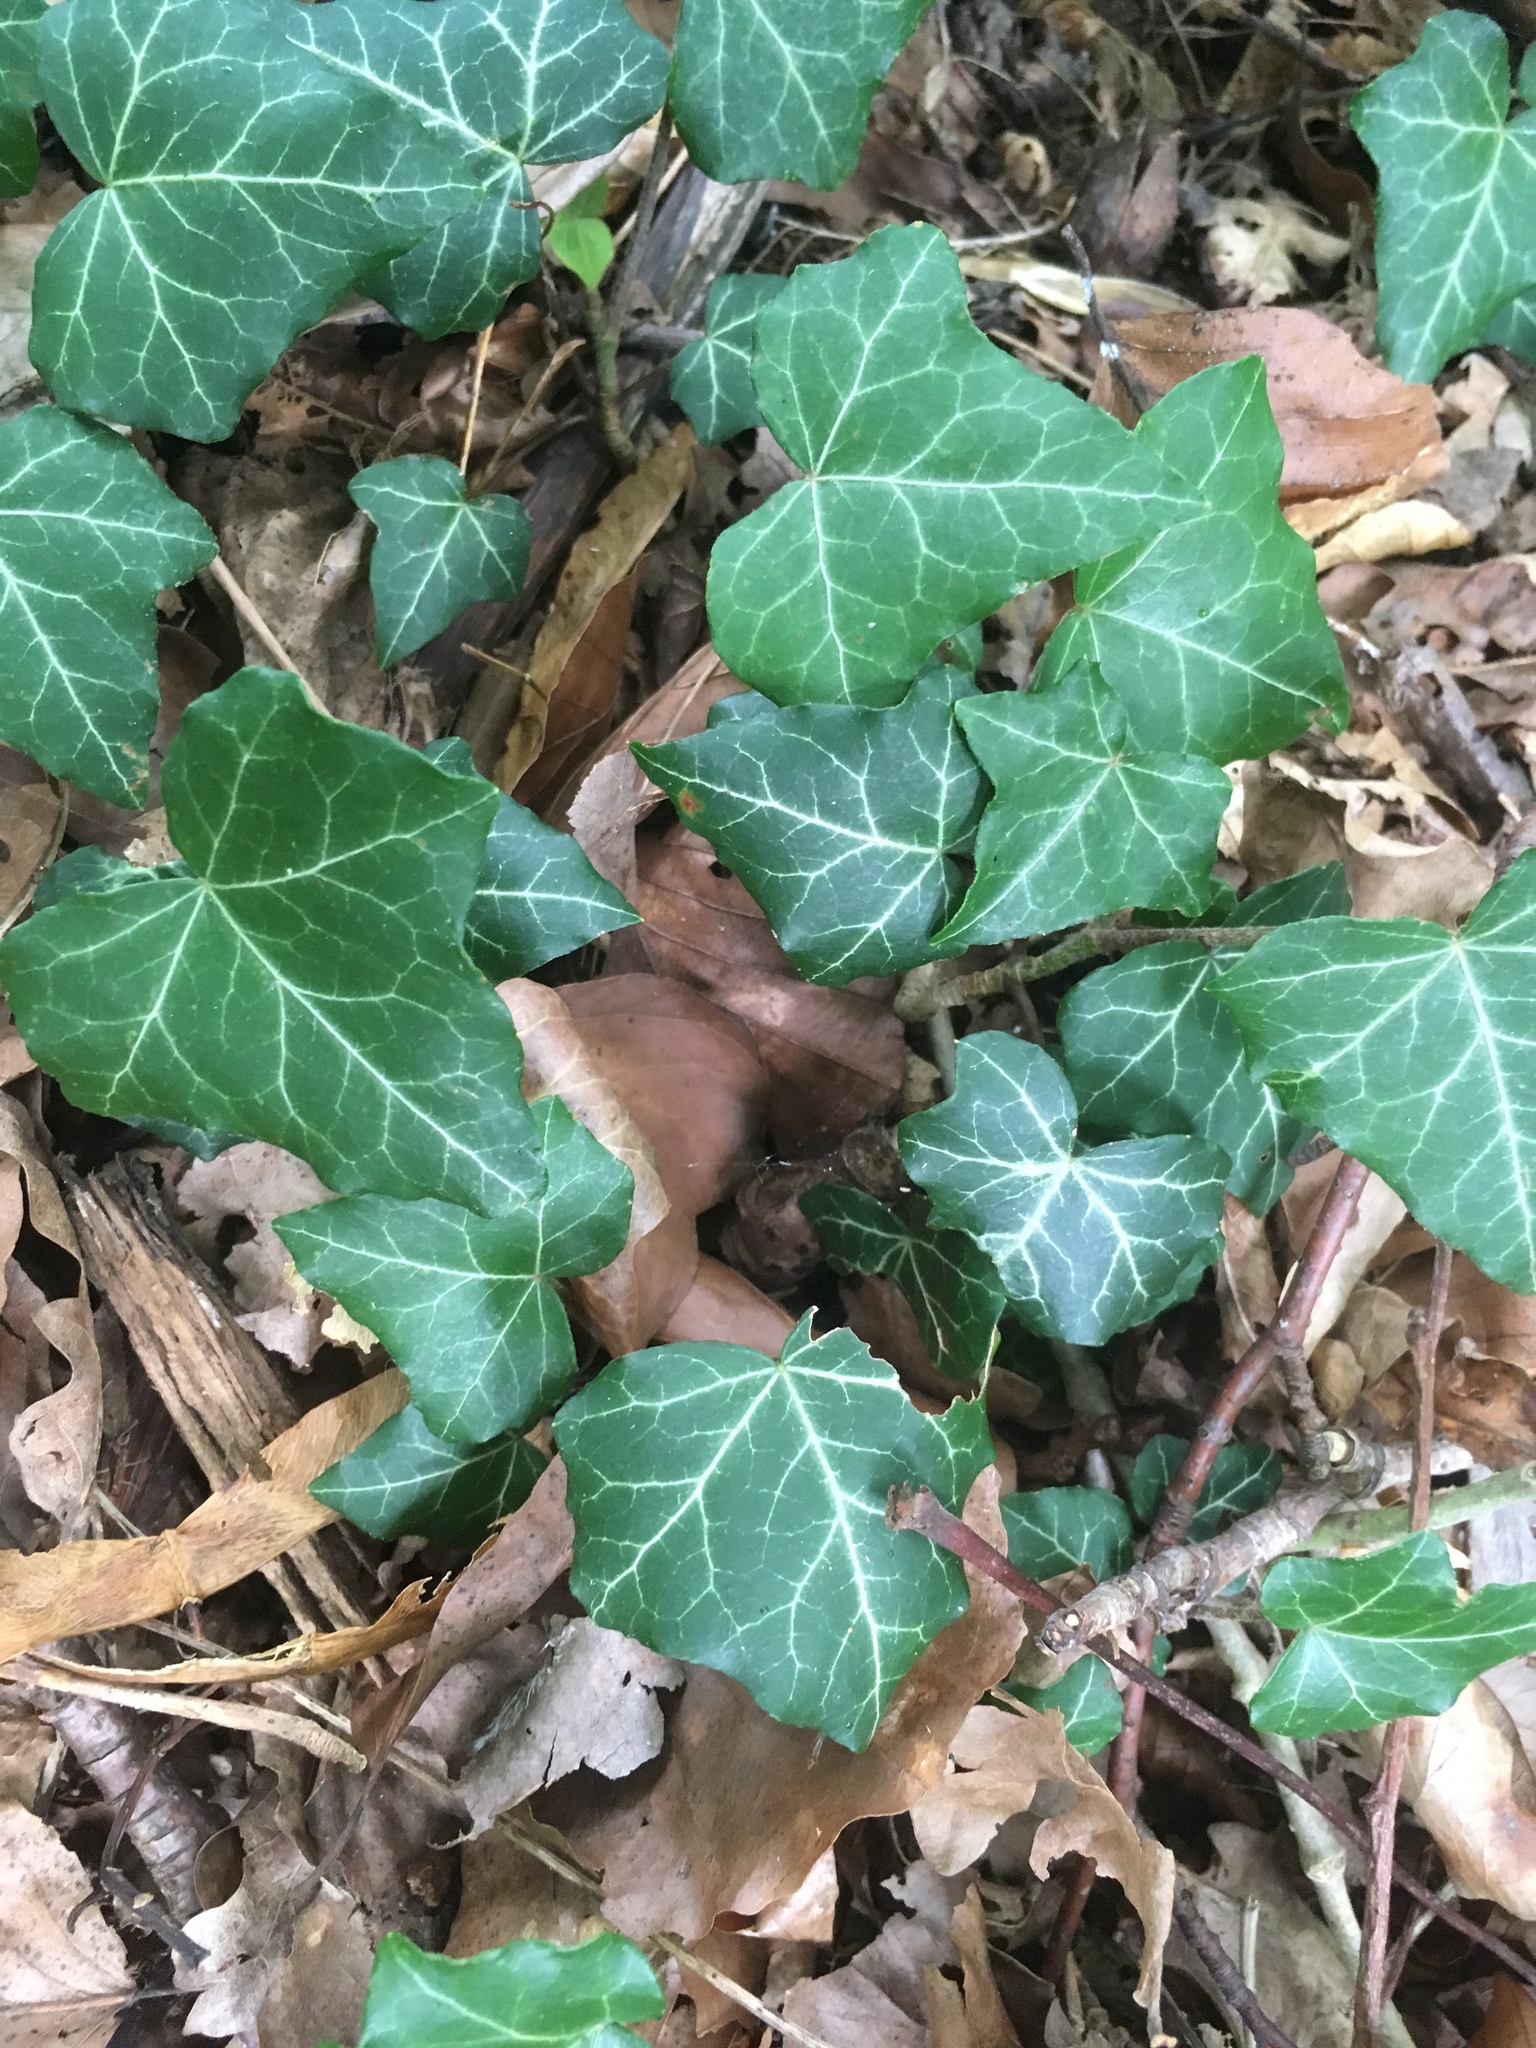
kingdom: Plantae
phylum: Tracheophyta
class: Magnoliopsida
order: Apiales
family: Araliaceae
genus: Hedera
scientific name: Hedera helix
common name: Ivy
